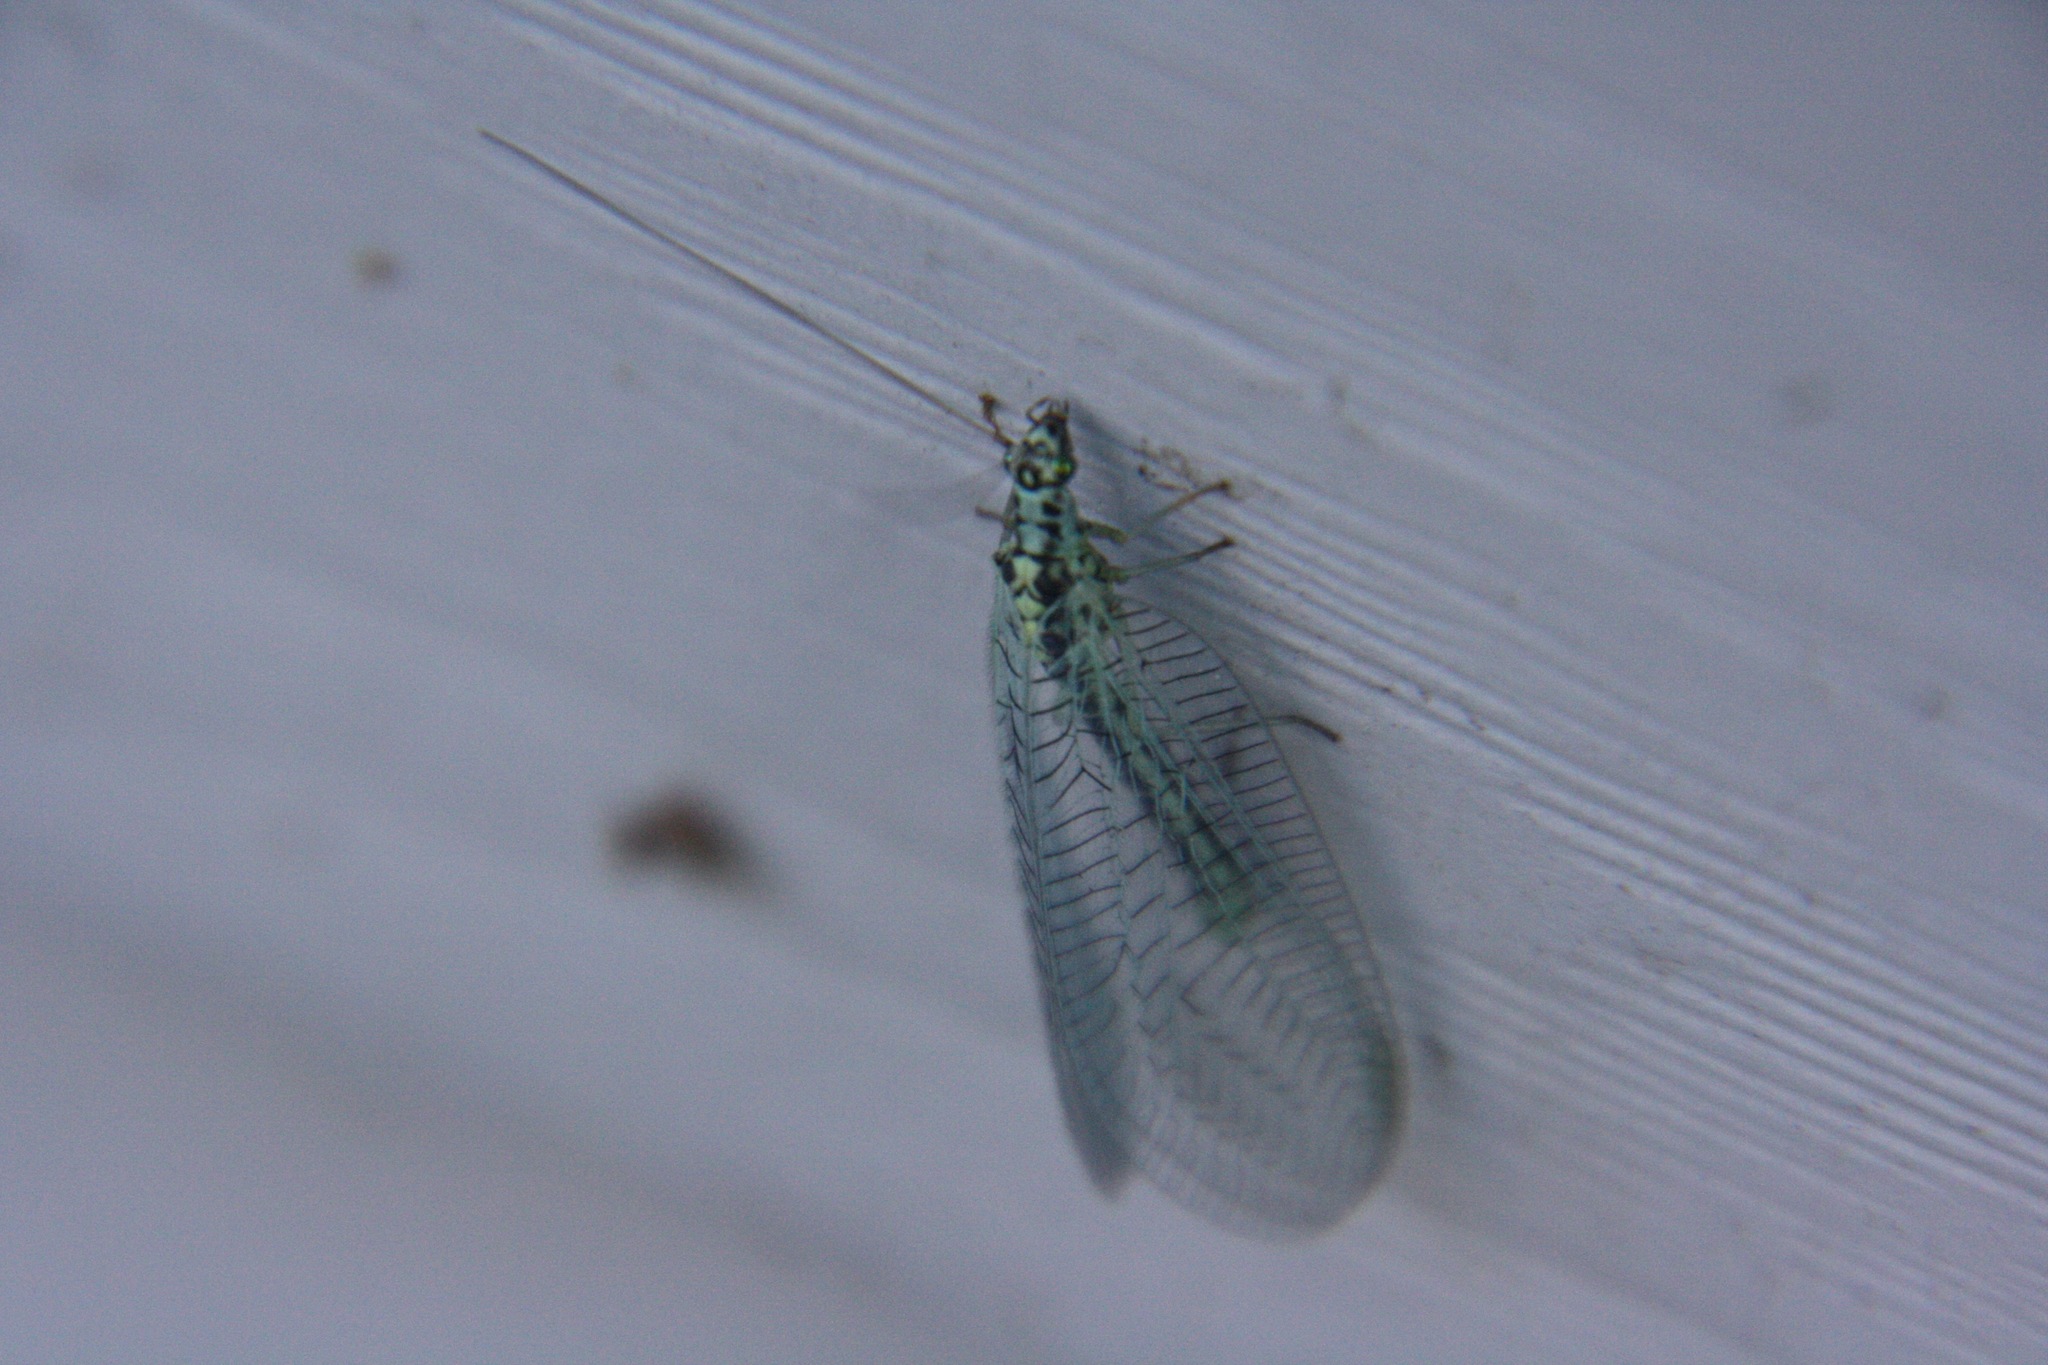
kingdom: Animalia
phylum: Arthropoda
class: Insecta
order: Neuroptera
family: Chrysopidae
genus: Chrysopa
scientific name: Chrysopa perla
